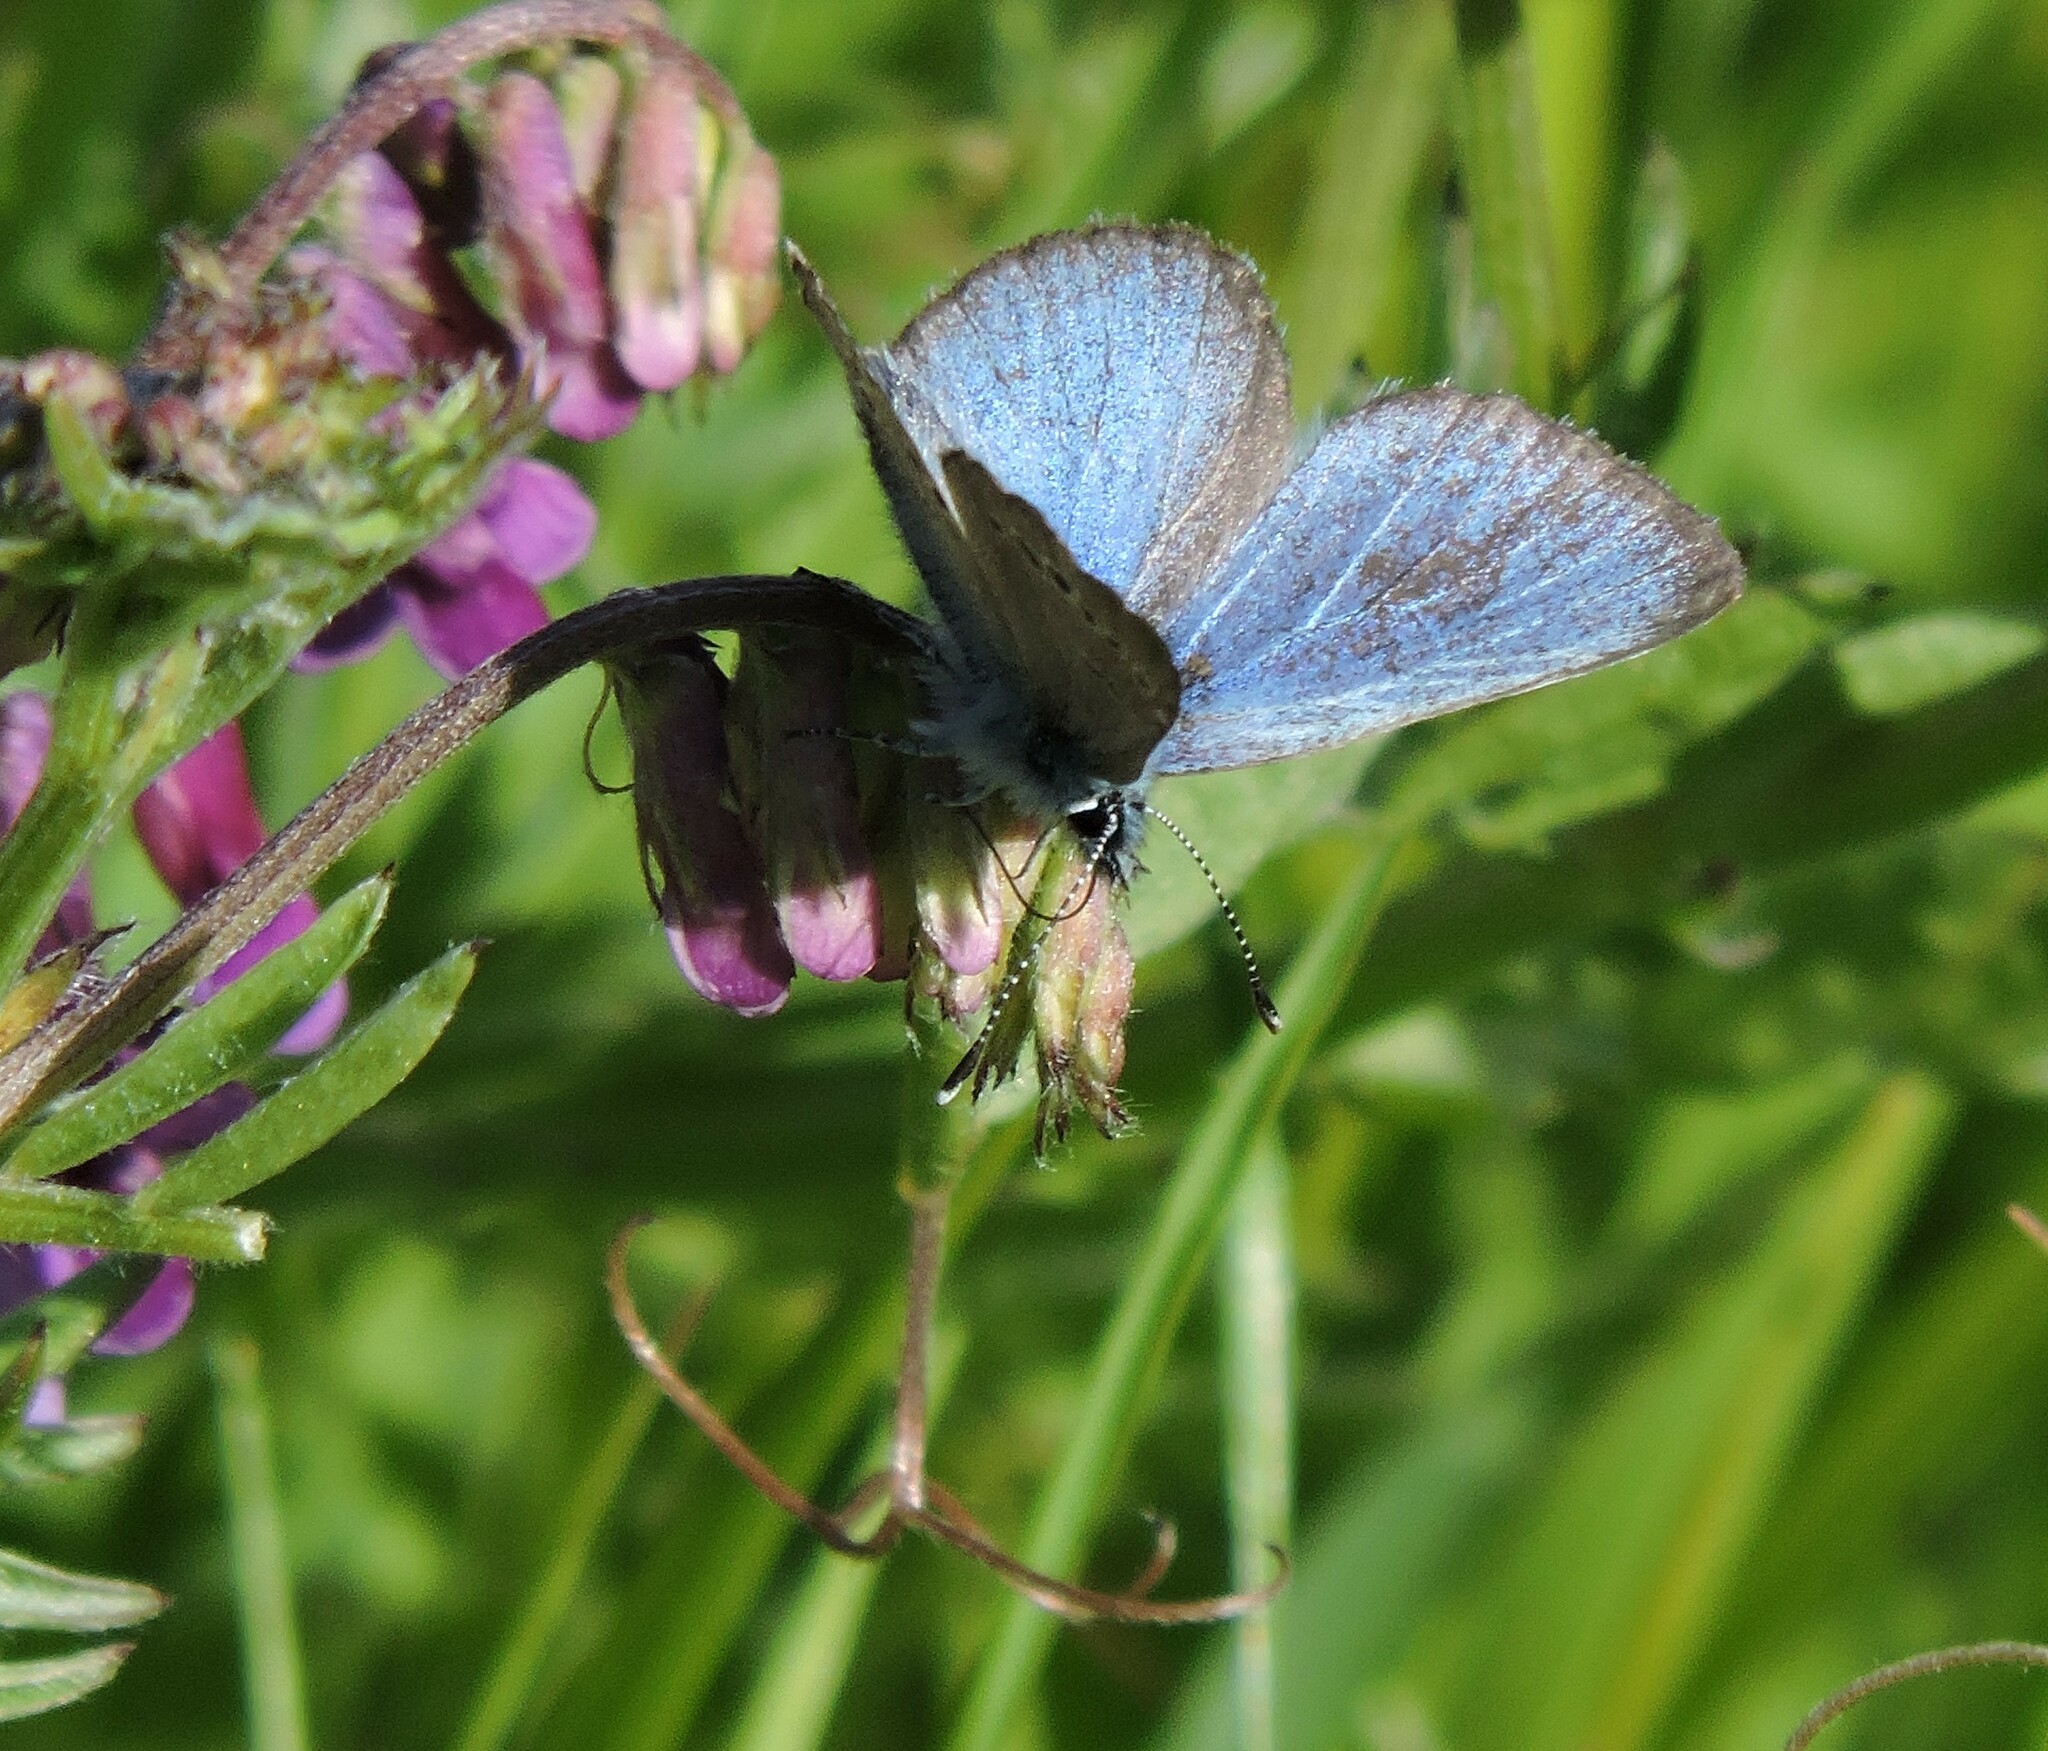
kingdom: Animalia
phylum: Arthropoda
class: Insecta
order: Lepidoptera
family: Lycaenidae
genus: Glaucopsyche
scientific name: Glaucopsyche lygdamus
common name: Silvery blue
